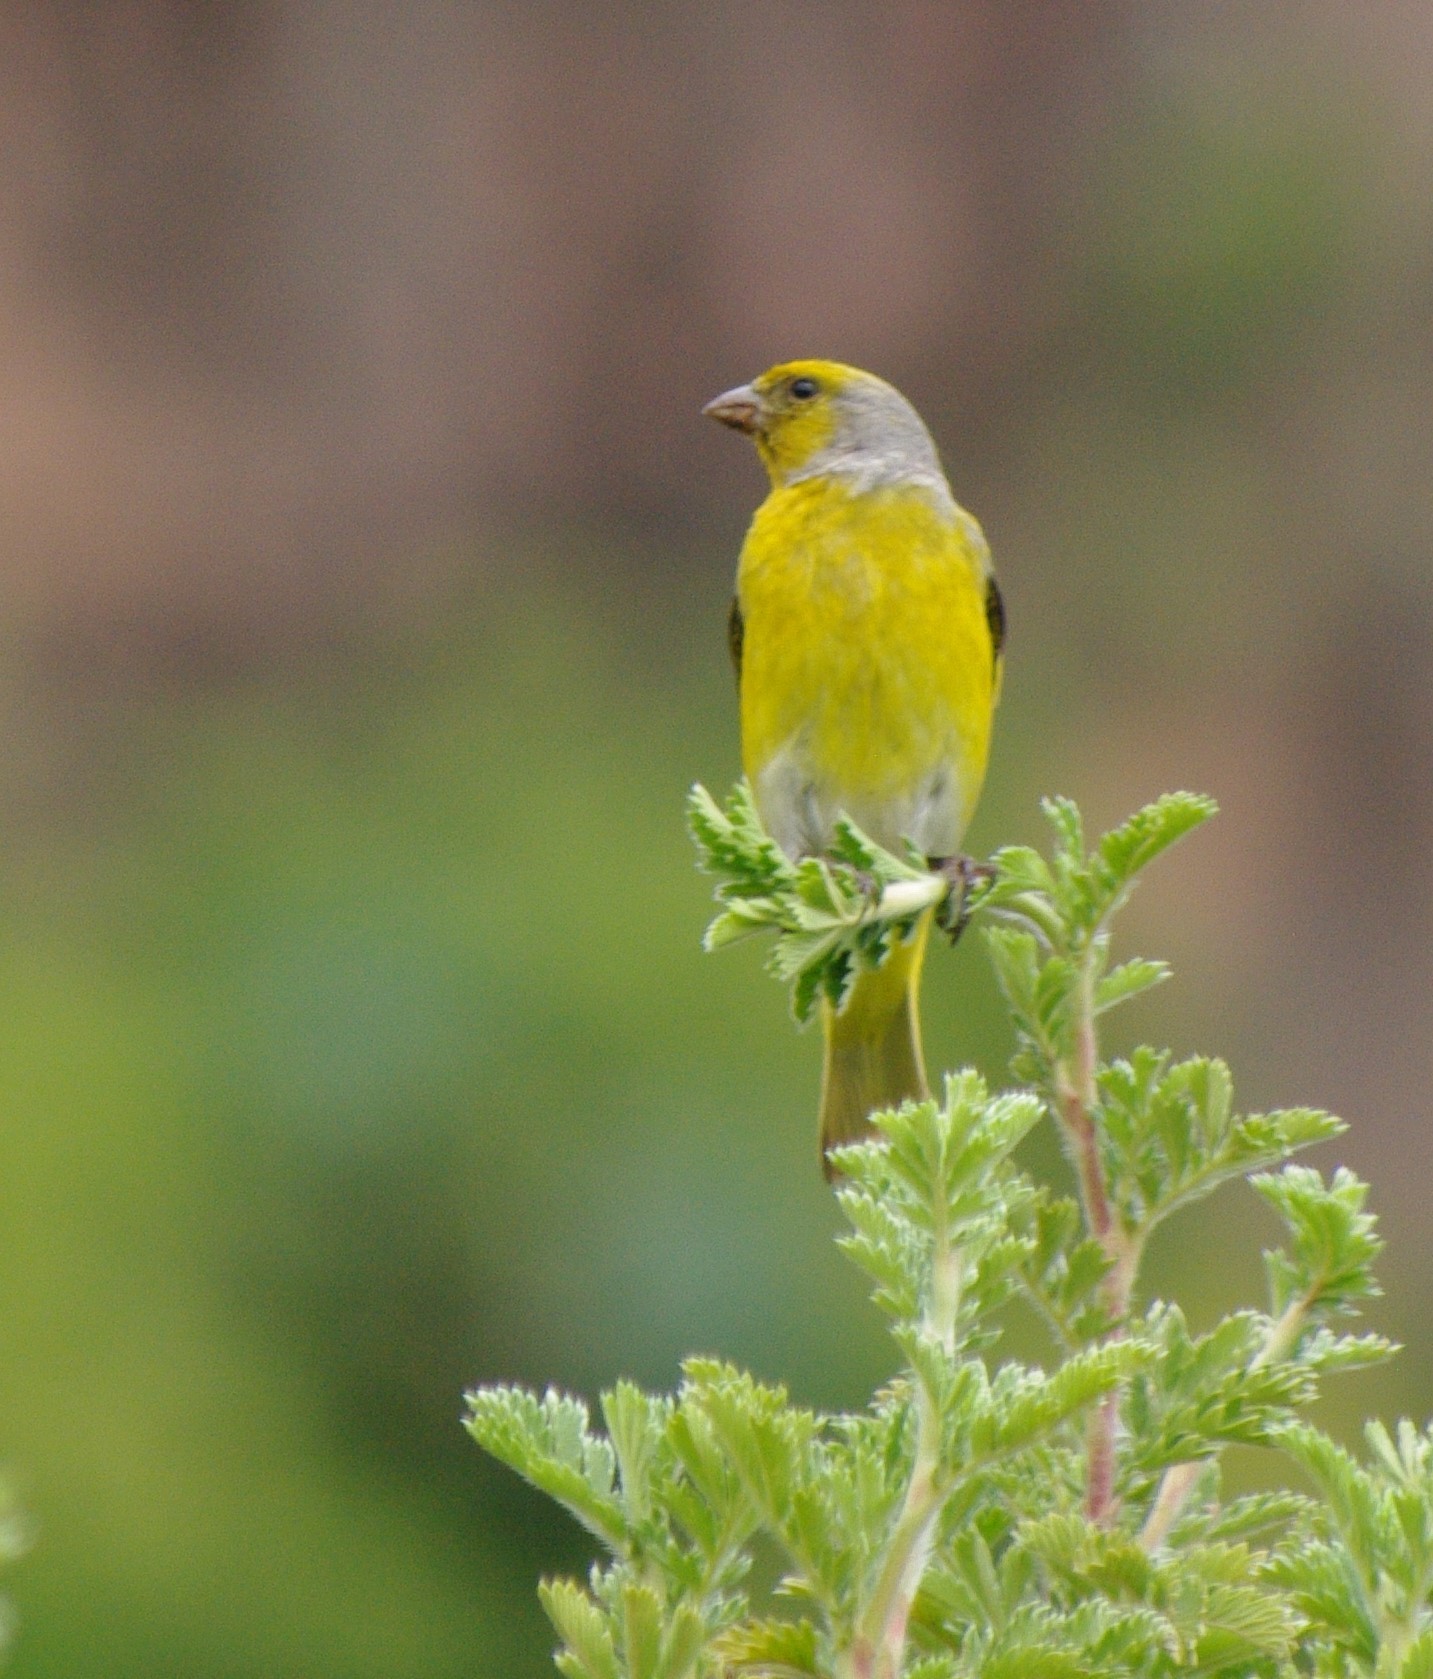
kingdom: Animalia
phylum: Chordata
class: Aves
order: Passeriformes
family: Fringillidae
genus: Serinus
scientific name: Serinus canicollis
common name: Cape canary
